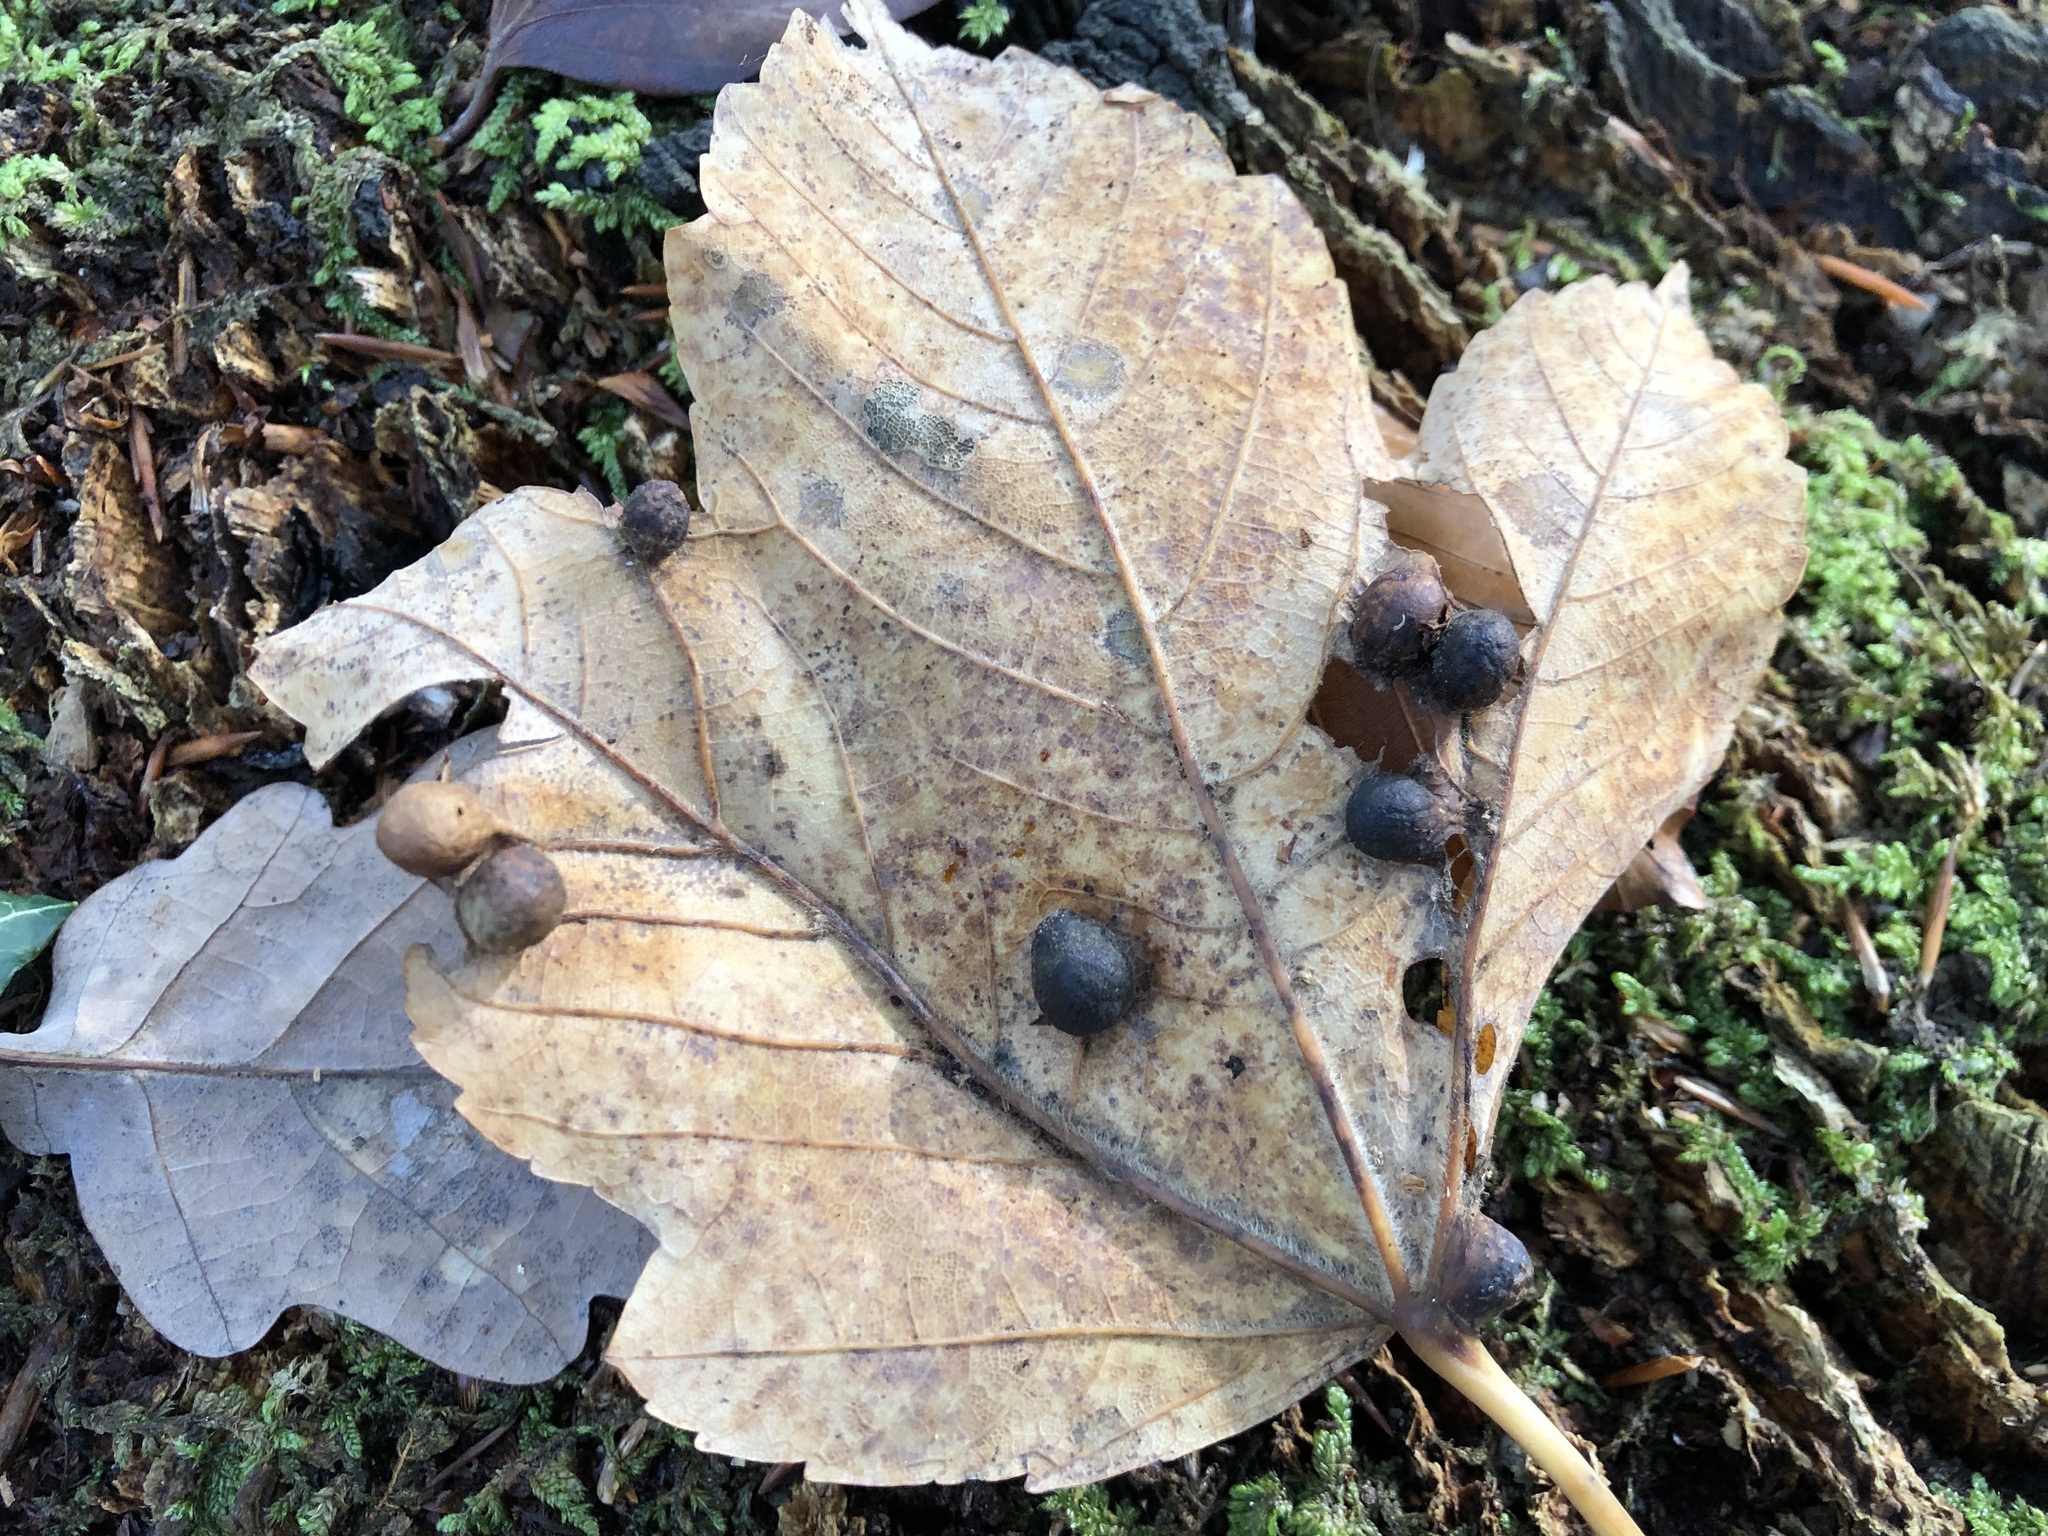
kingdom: Animalia
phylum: Arthropoda
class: Insecta
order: Hymenoptera
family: Cynipidae
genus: Pediaspis
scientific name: Pediaspis aceris
